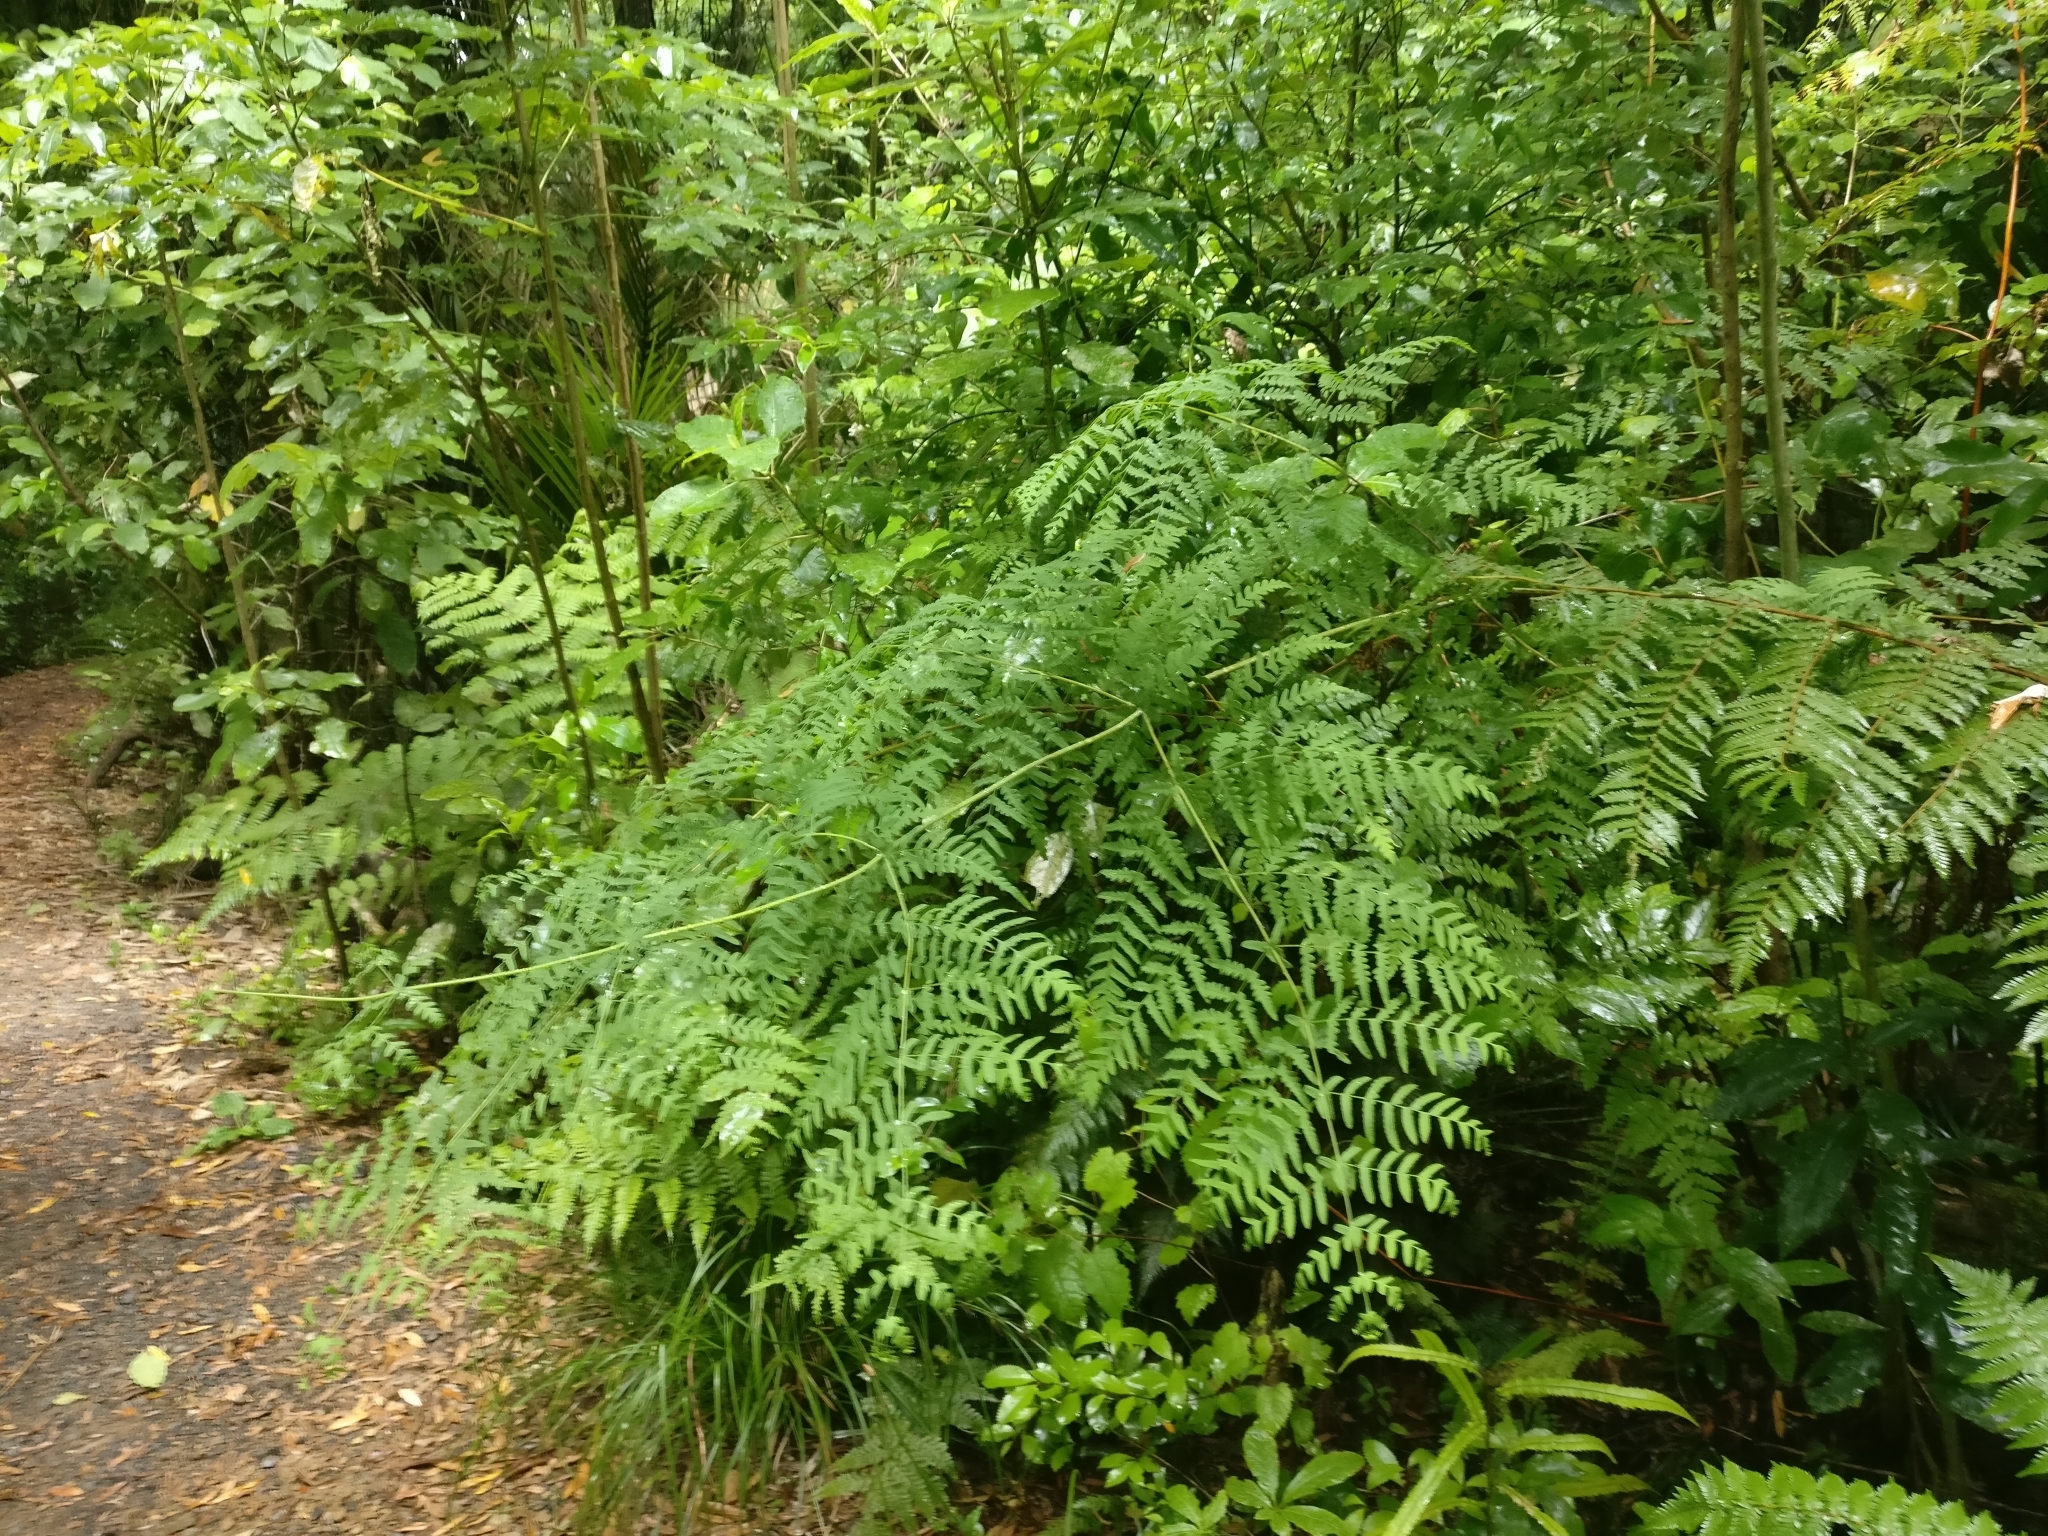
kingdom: Plantae
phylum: Tracheophyta
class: Polypodiopsida
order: Polypodiales
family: Dennstaedtiaceae
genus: Histiopteris
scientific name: Histiopteris incisa
